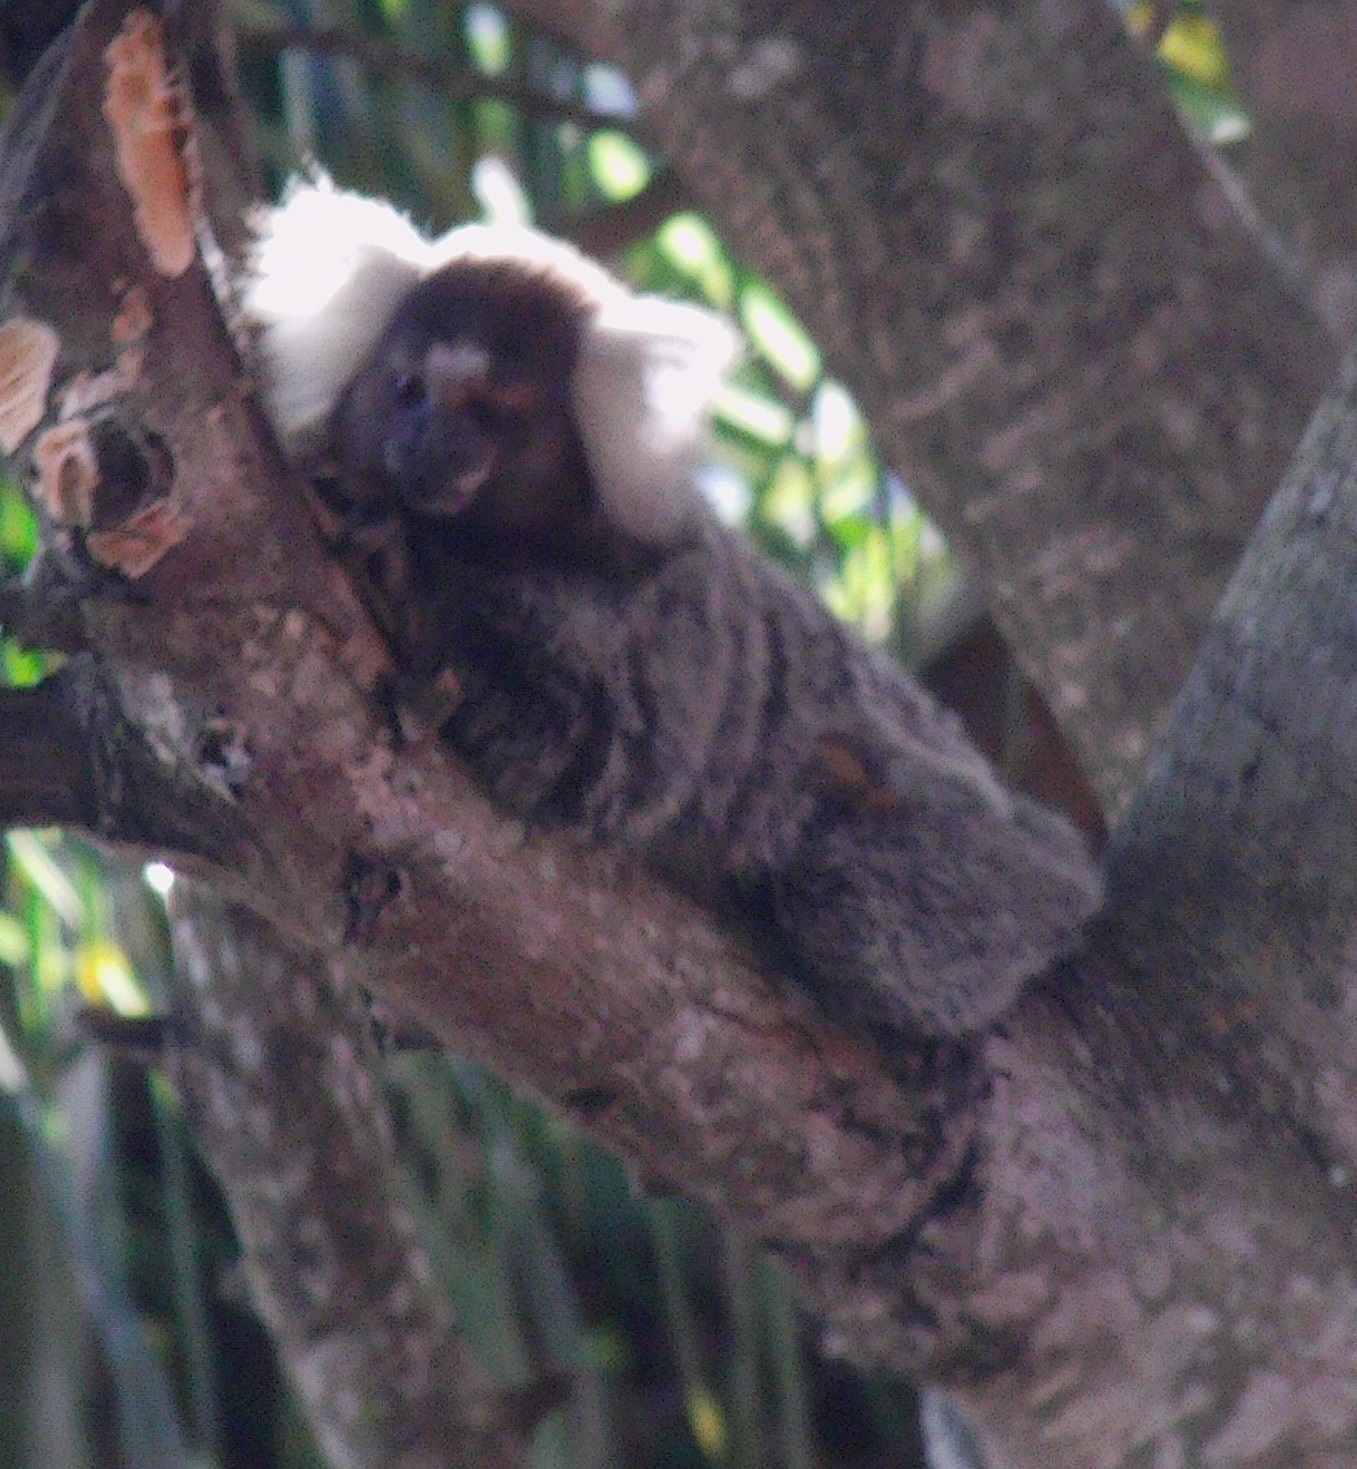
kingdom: Animalia
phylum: Chordata
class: Mammalia
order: Primates
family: Callitrichidae
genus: Callithrix
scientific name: Callithrix jacchus
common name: Common marmoset
